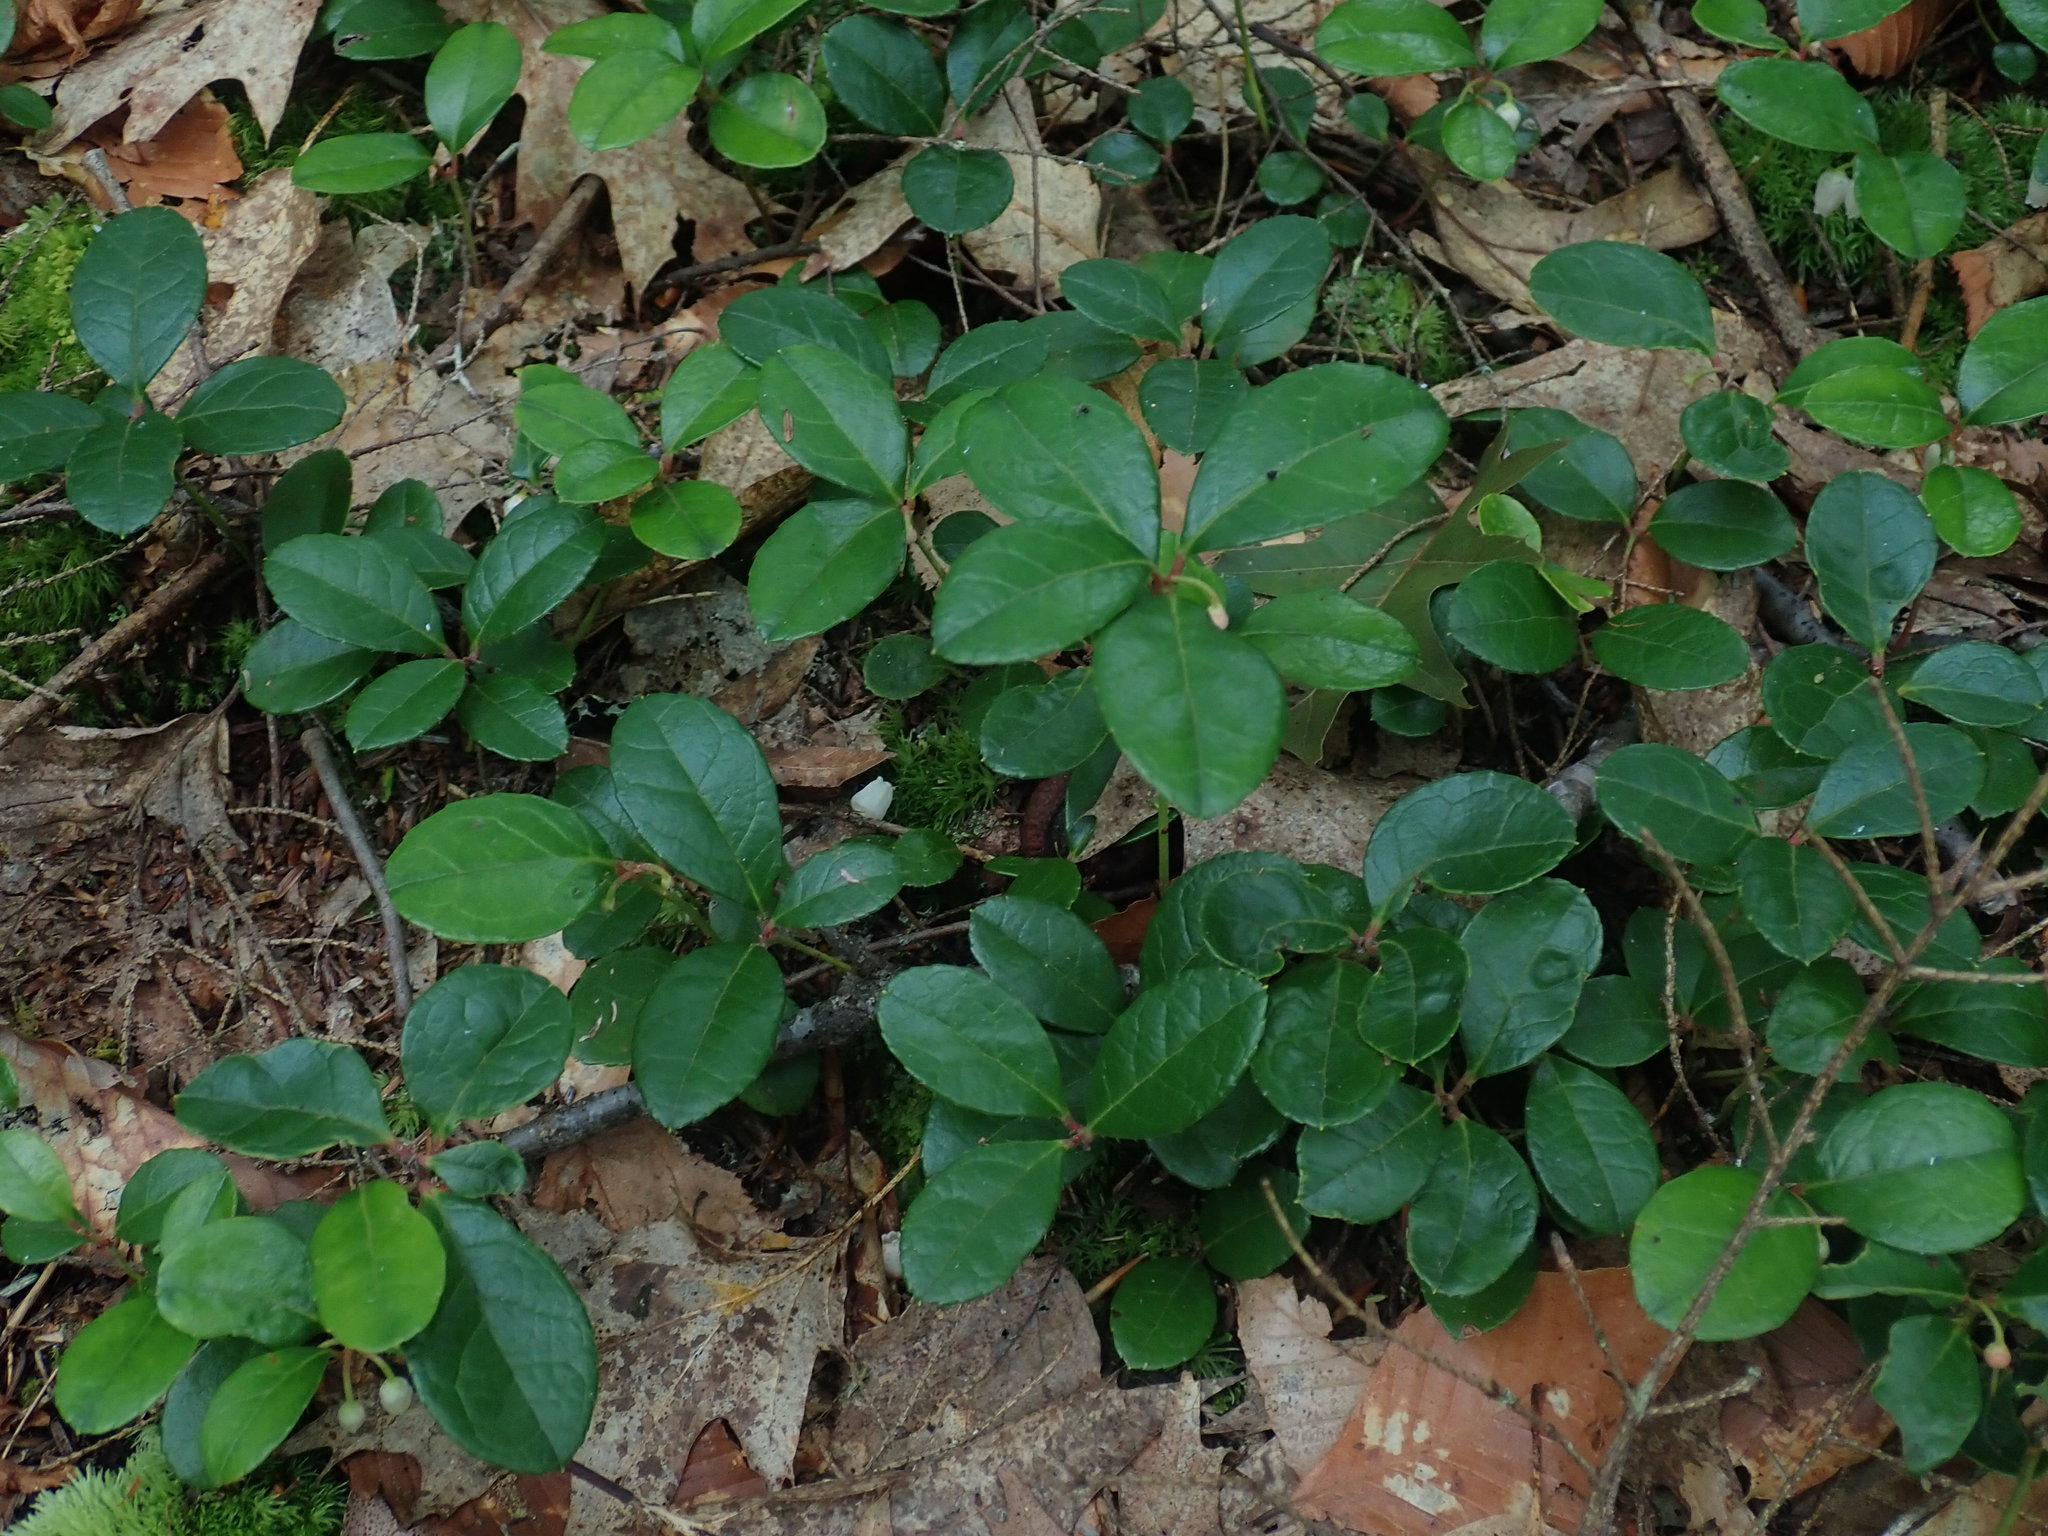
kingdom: Plantae
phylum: Tracheophyta
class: Magnoliopsida
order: Ericales
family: Ericaceae
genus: Gaultheria
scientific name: Gaultheria procumbens
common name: Checkerberry
